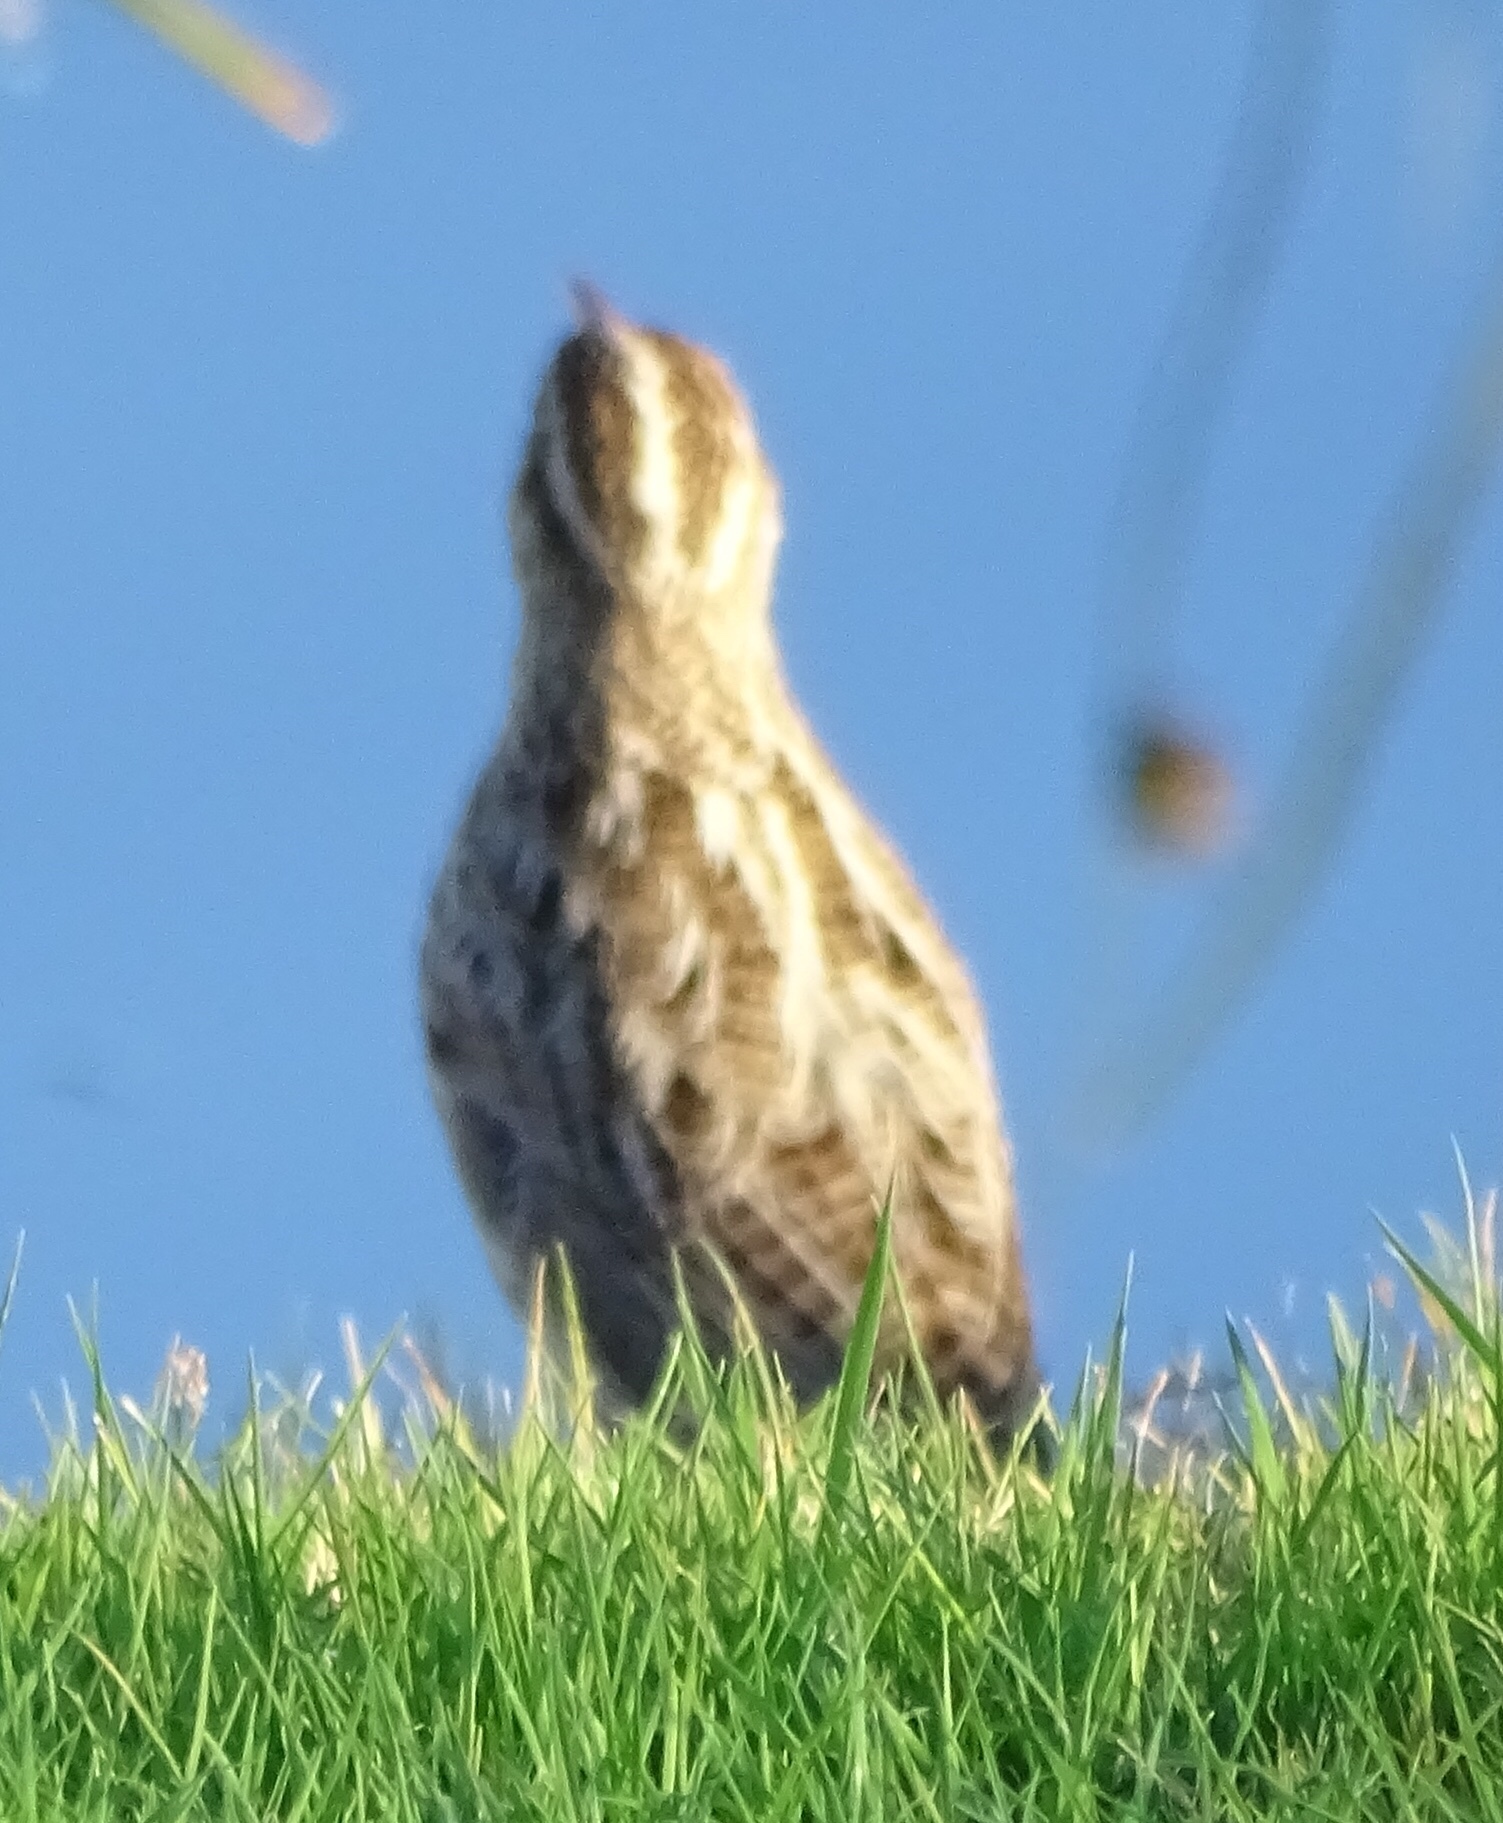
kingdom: Animalia
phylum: Chordata
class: Aves
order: Passeriformes
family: Icteridae
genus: Sturnella
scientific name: Sturnella neglecta
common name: Western meadowlark
